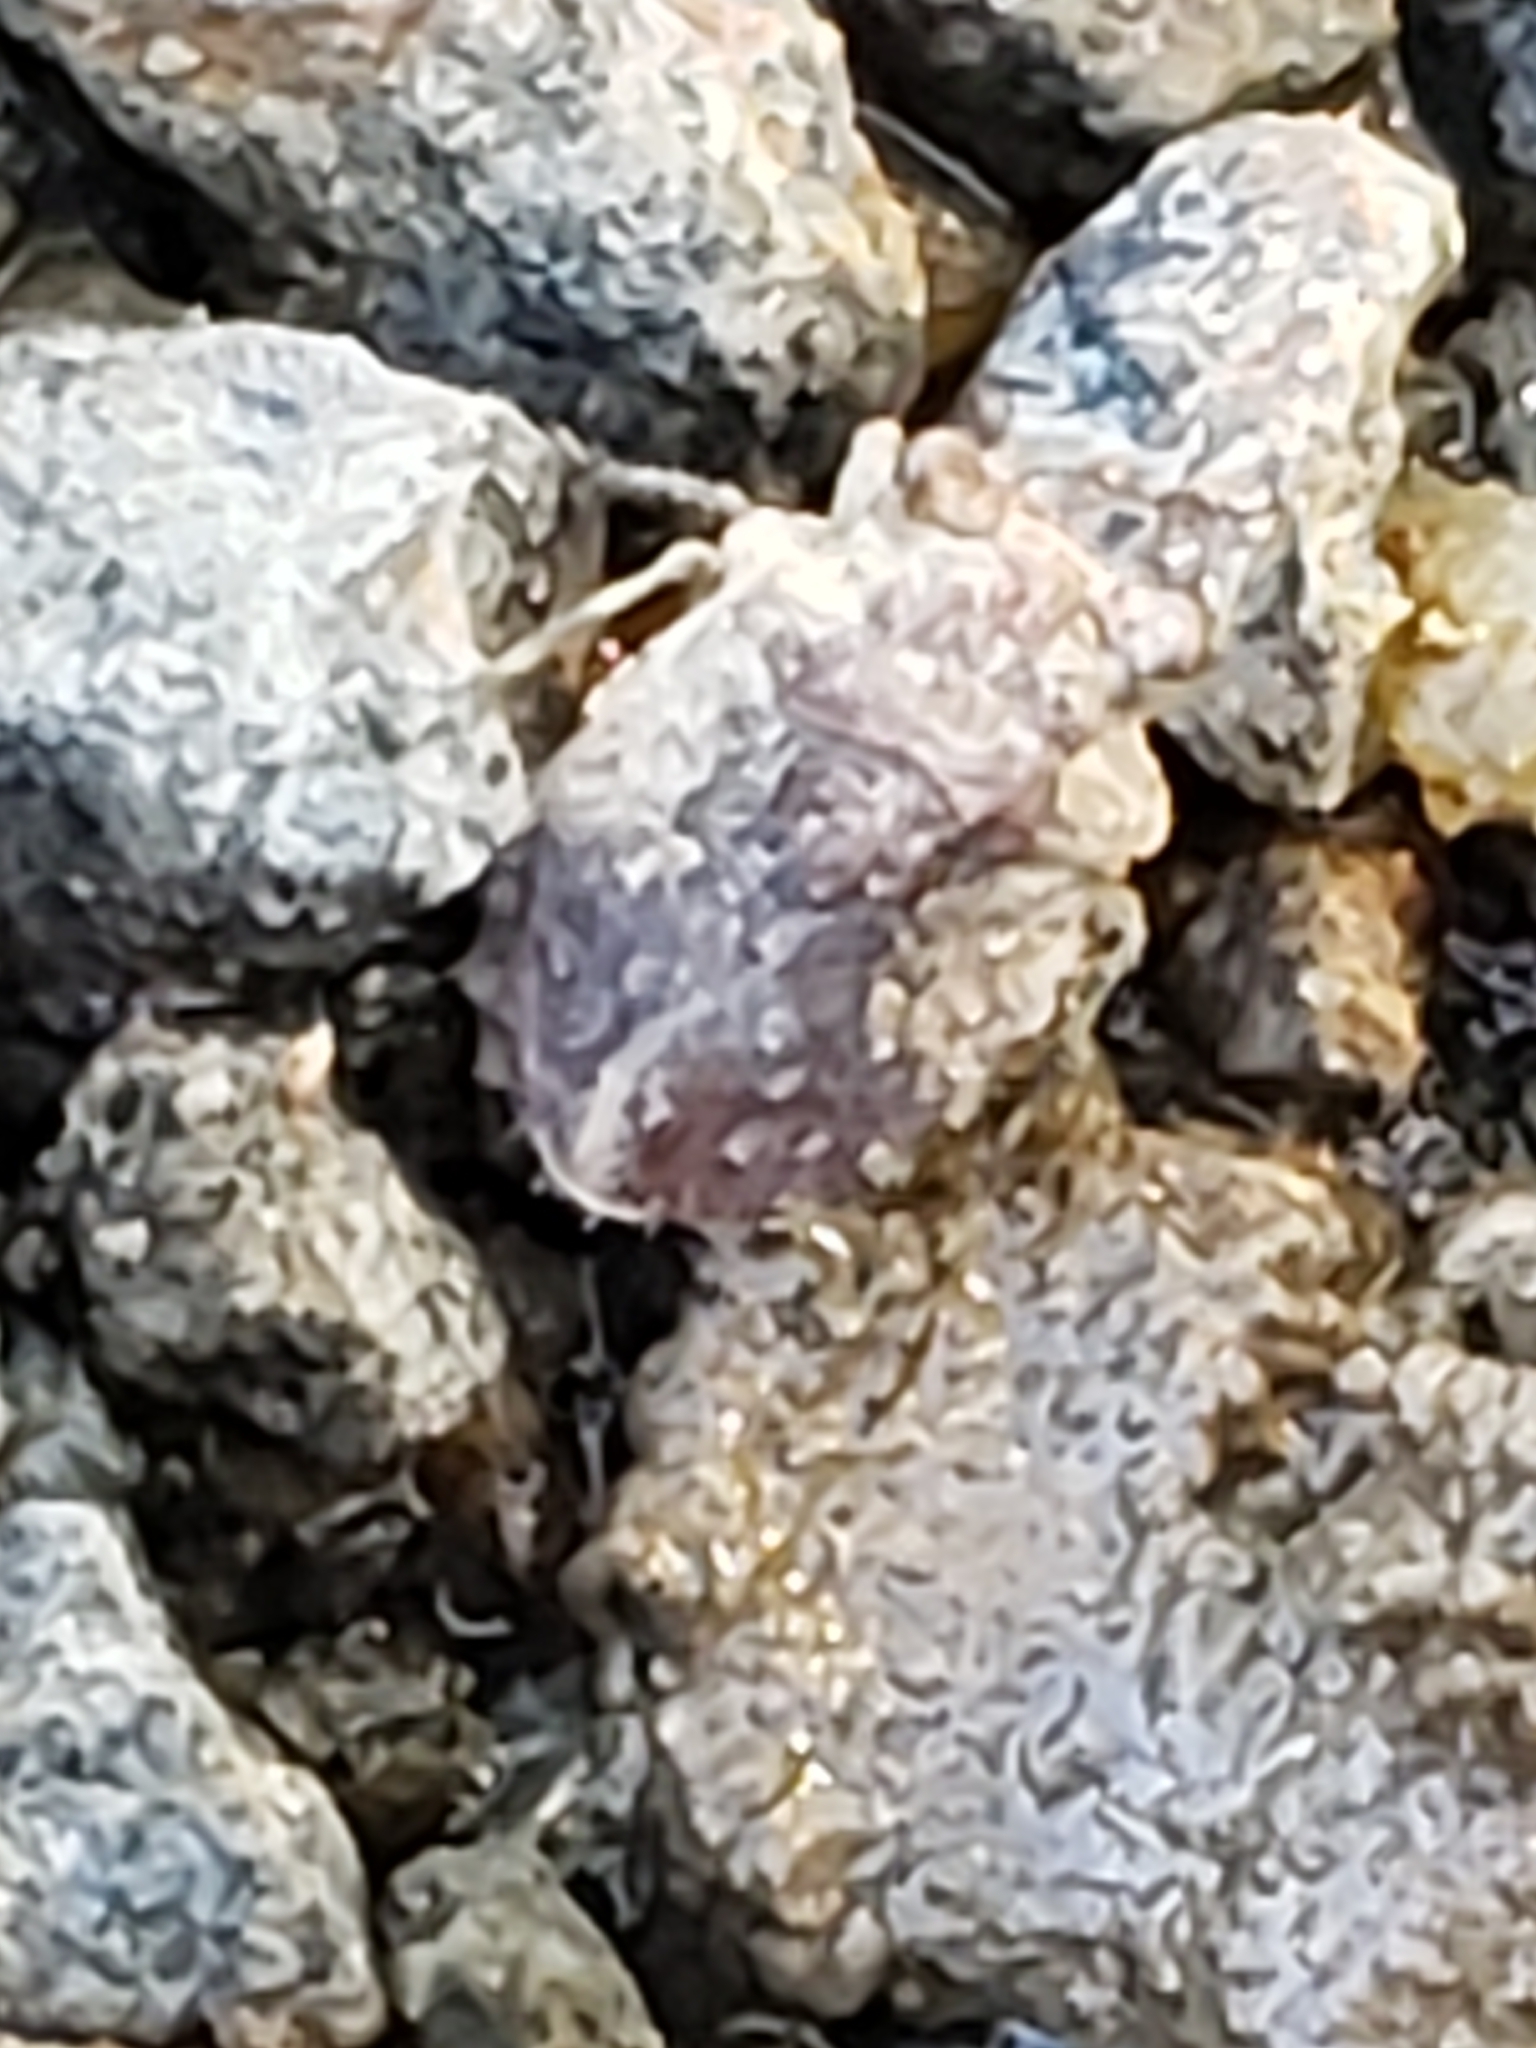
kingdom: Animalia
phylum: Arthropoda
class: Insecta
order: Hemiptera
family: Gelastocoridae
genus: Gelastocoris
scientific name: Gelastocoris oculatus
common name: Toad bug
